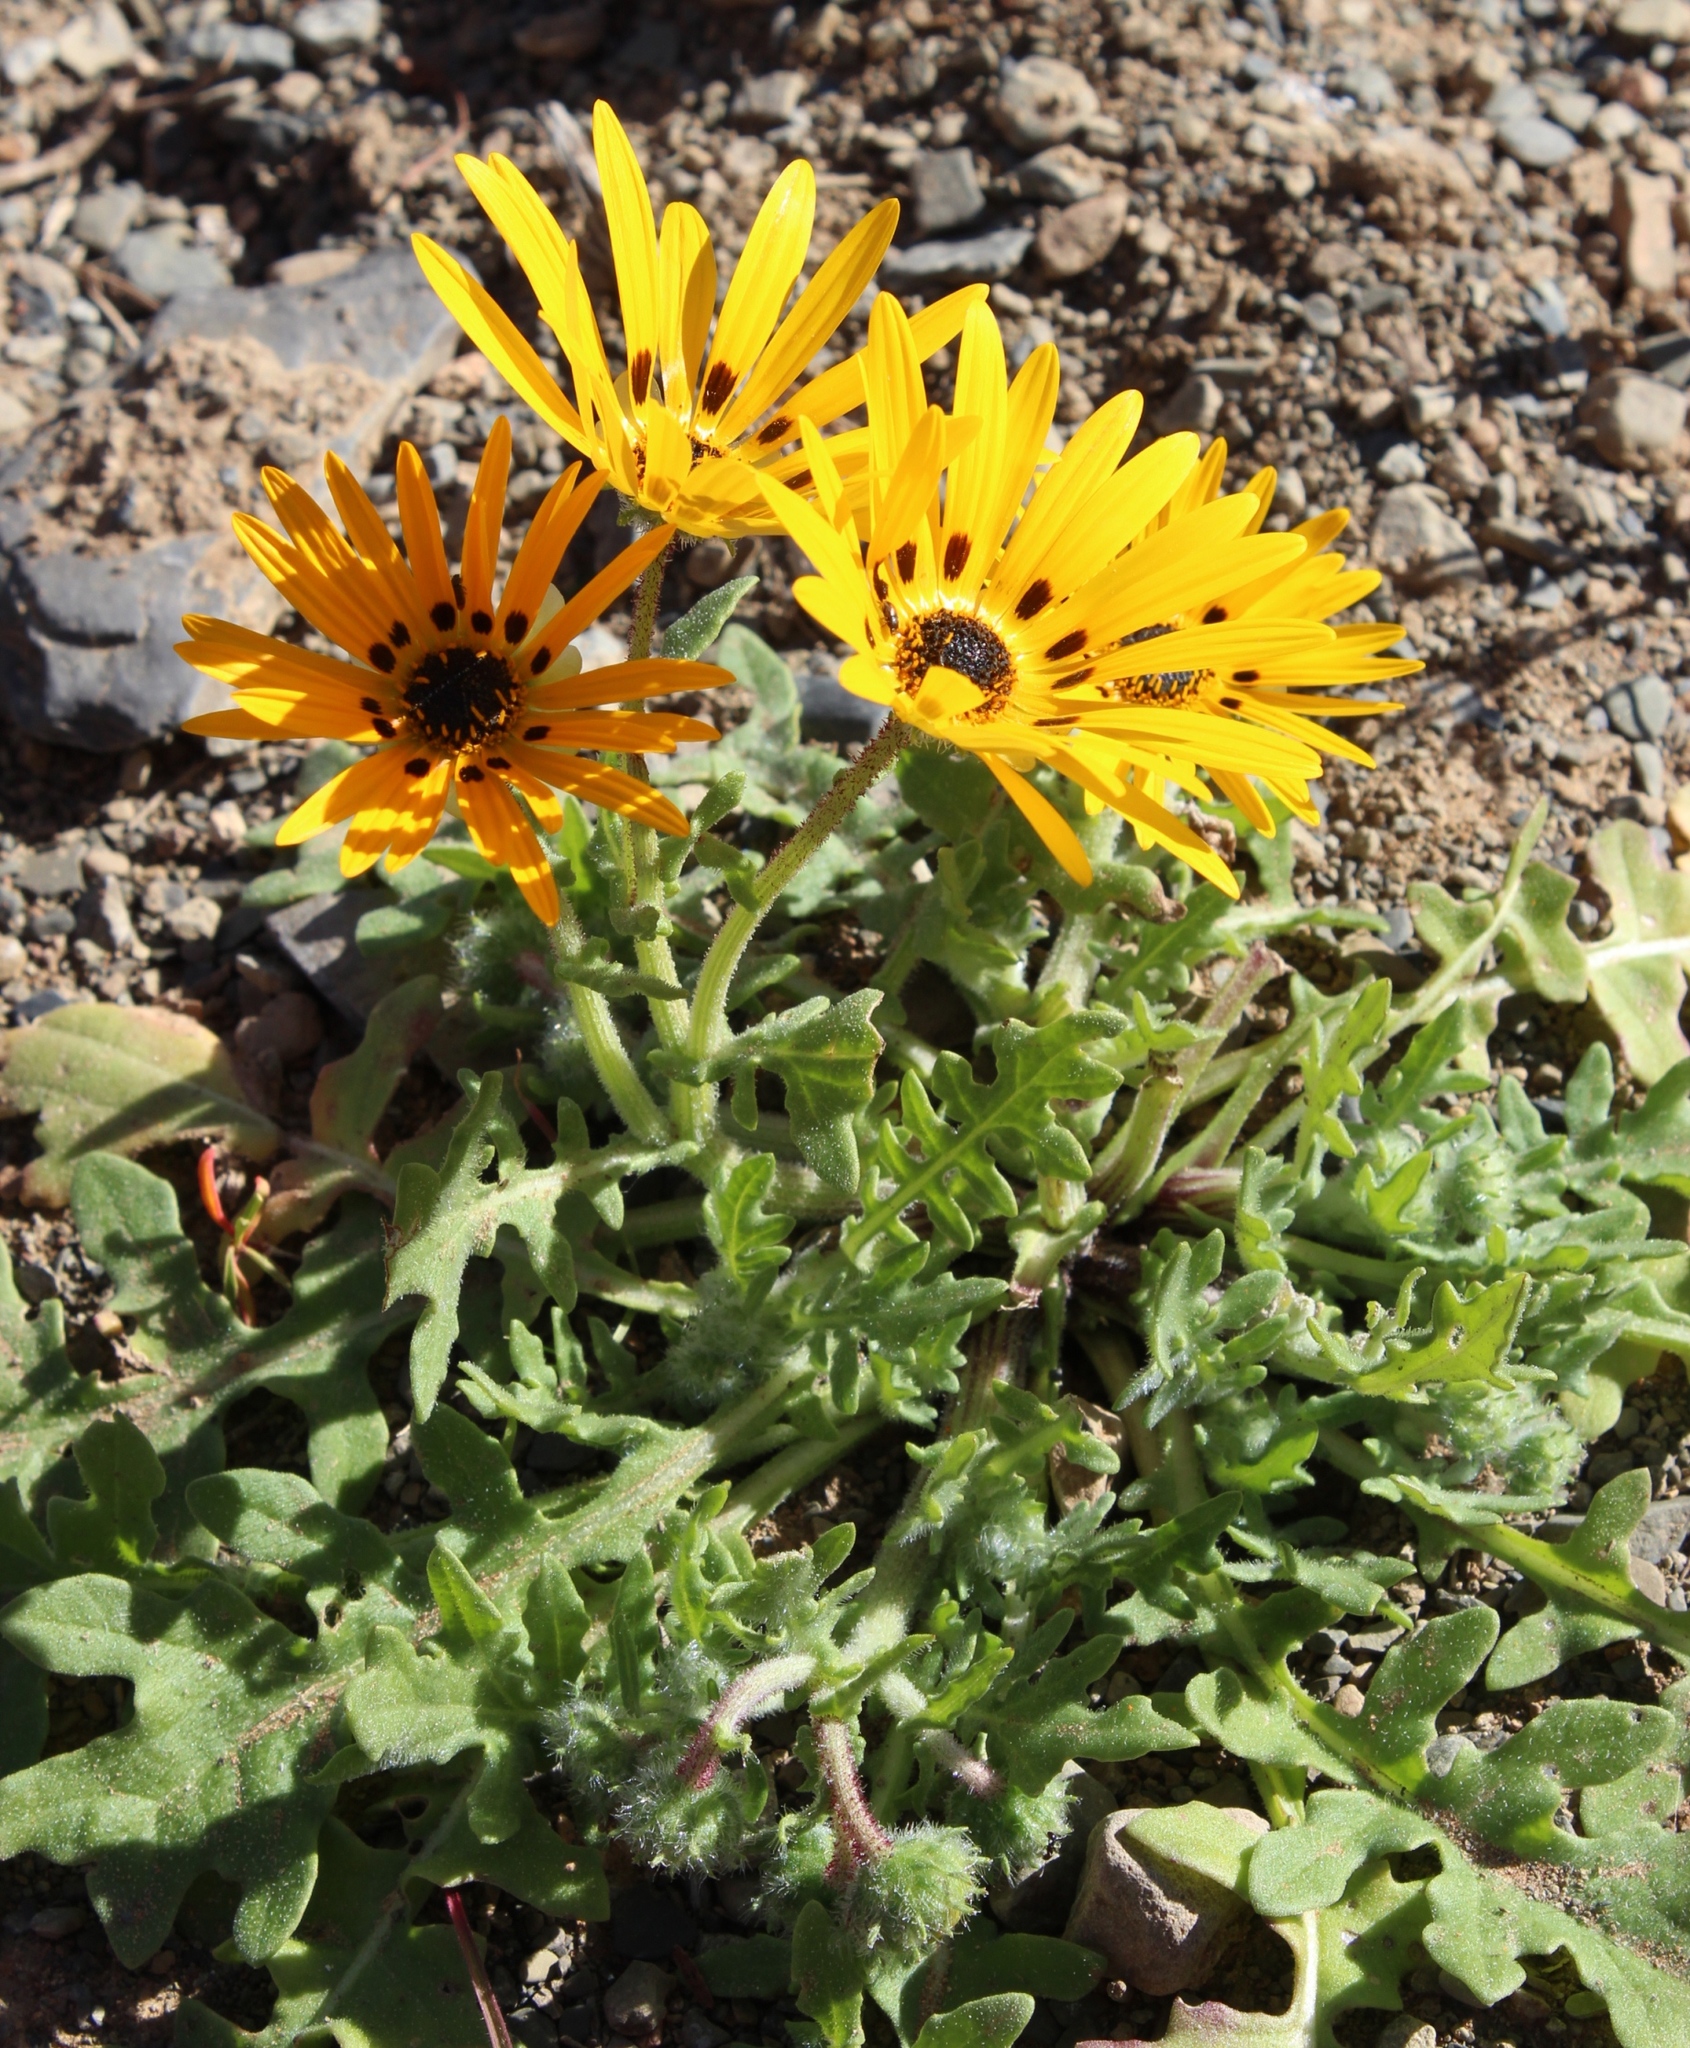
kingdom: Plantae
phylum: Tracheophyta
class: Magnoliopsida
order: Asterales
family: Asteraceae
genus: Arctotis
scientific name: Arctotis hirsuta
